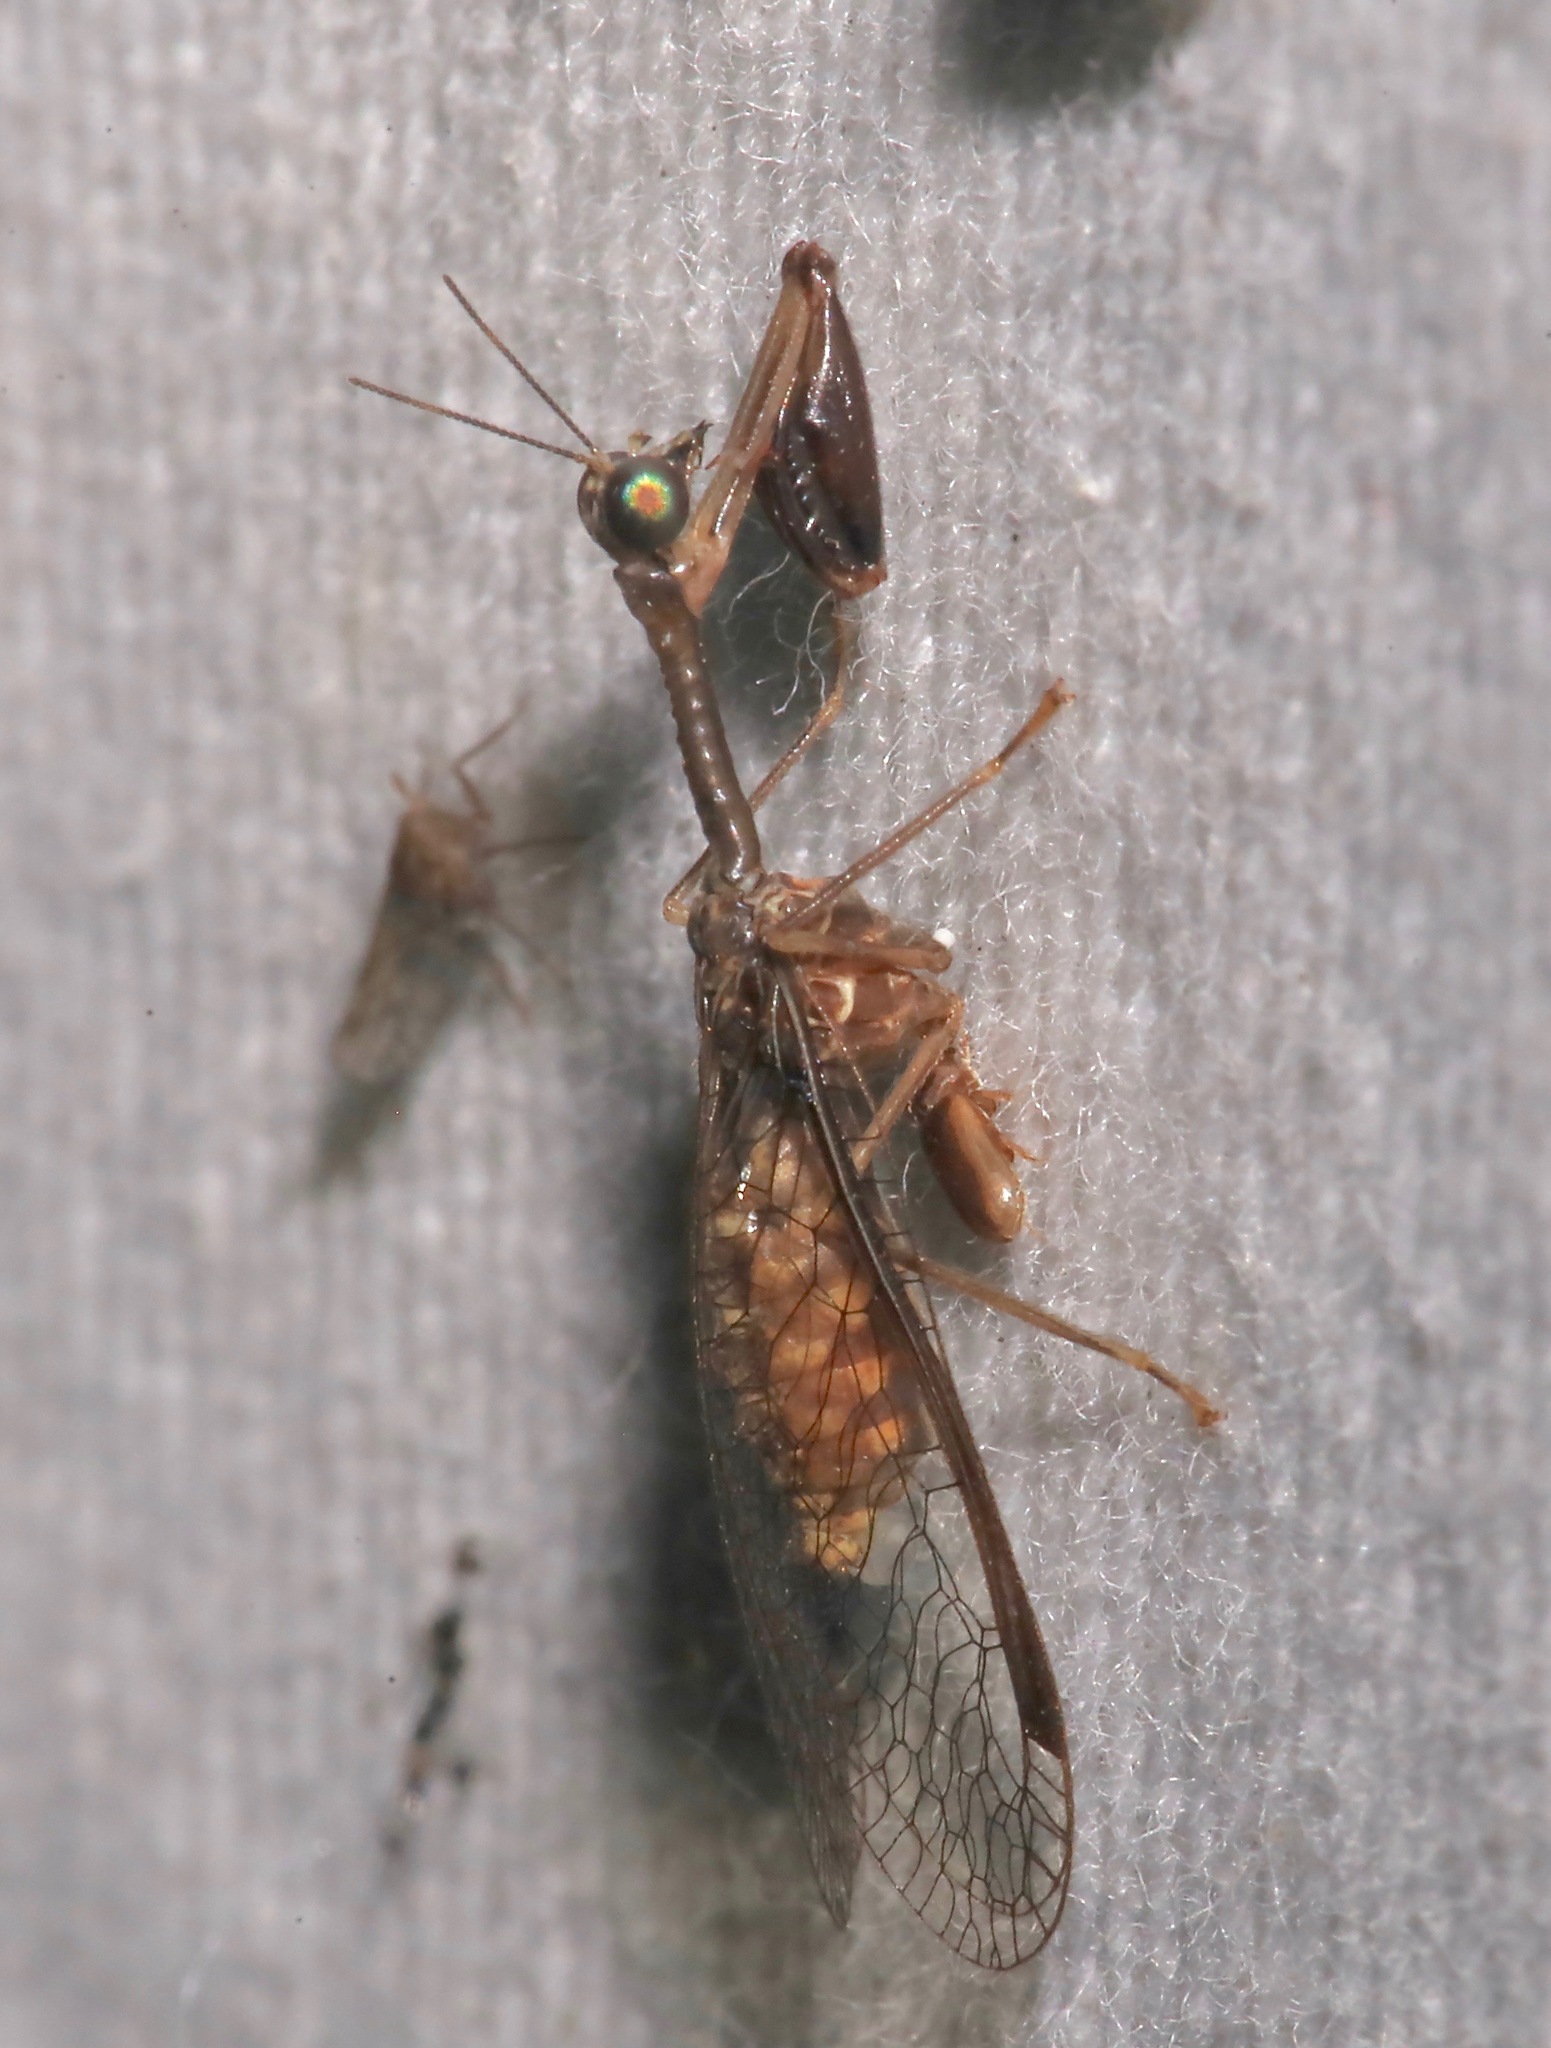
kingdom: Animalia
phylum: Arthropoda
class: Insecta
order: Neuroptera
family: Mantispidae
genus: Dicromantispa
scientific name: Dicromantispa sayi
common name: Say's mantidfly
